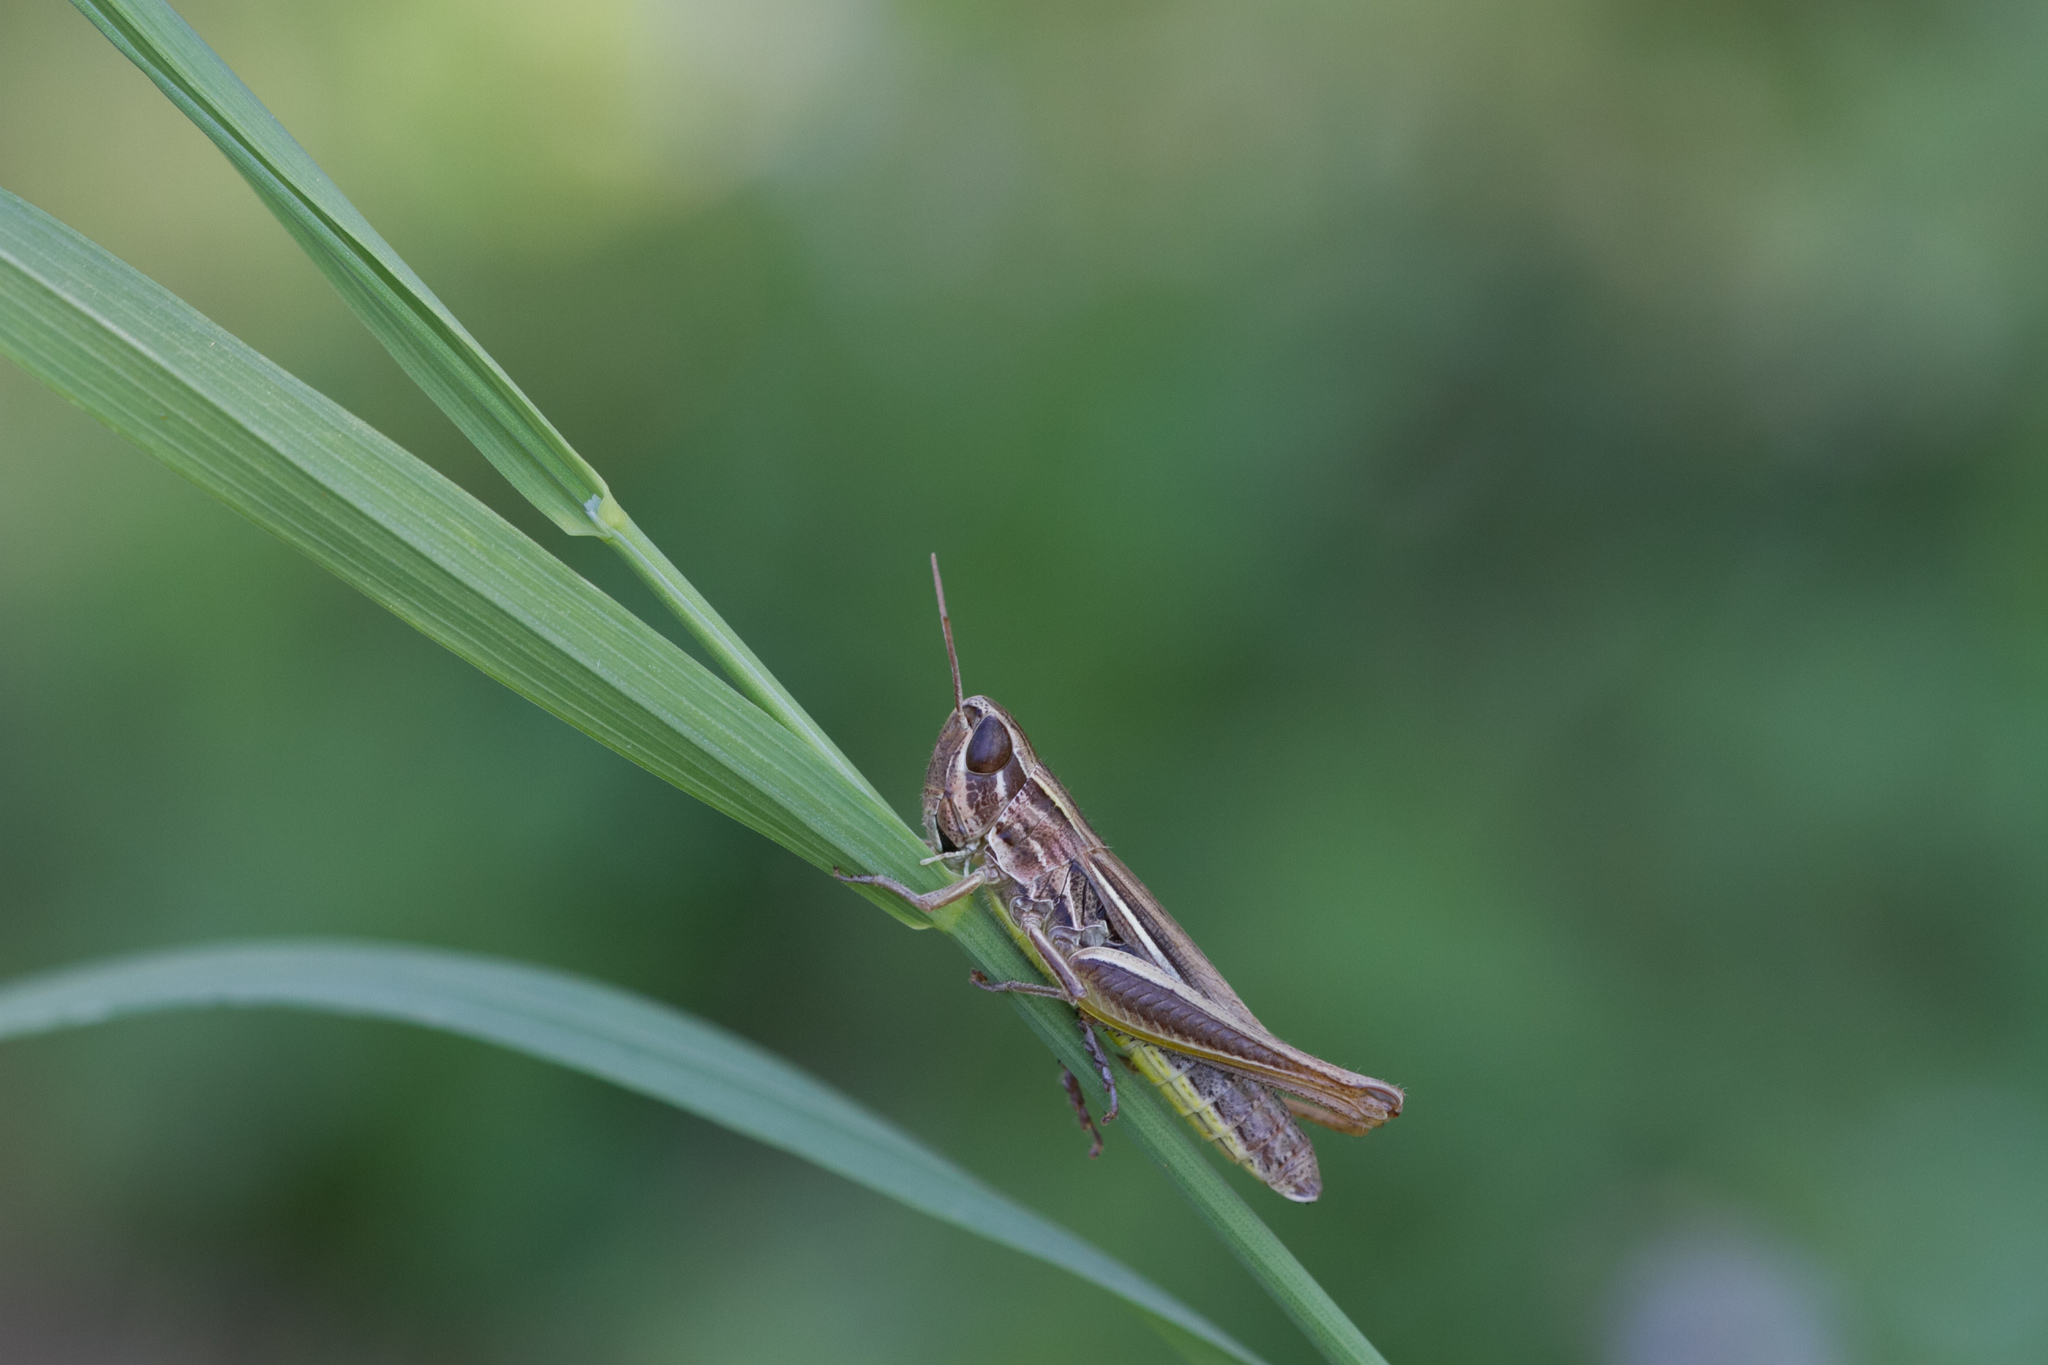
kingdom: Animalia
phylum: Arthropoda
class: Insecta
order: Orthoptera
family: Acrididae
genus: Euchorthippus
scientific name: Euchorthippus declivus
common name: Common straw grasshopper
